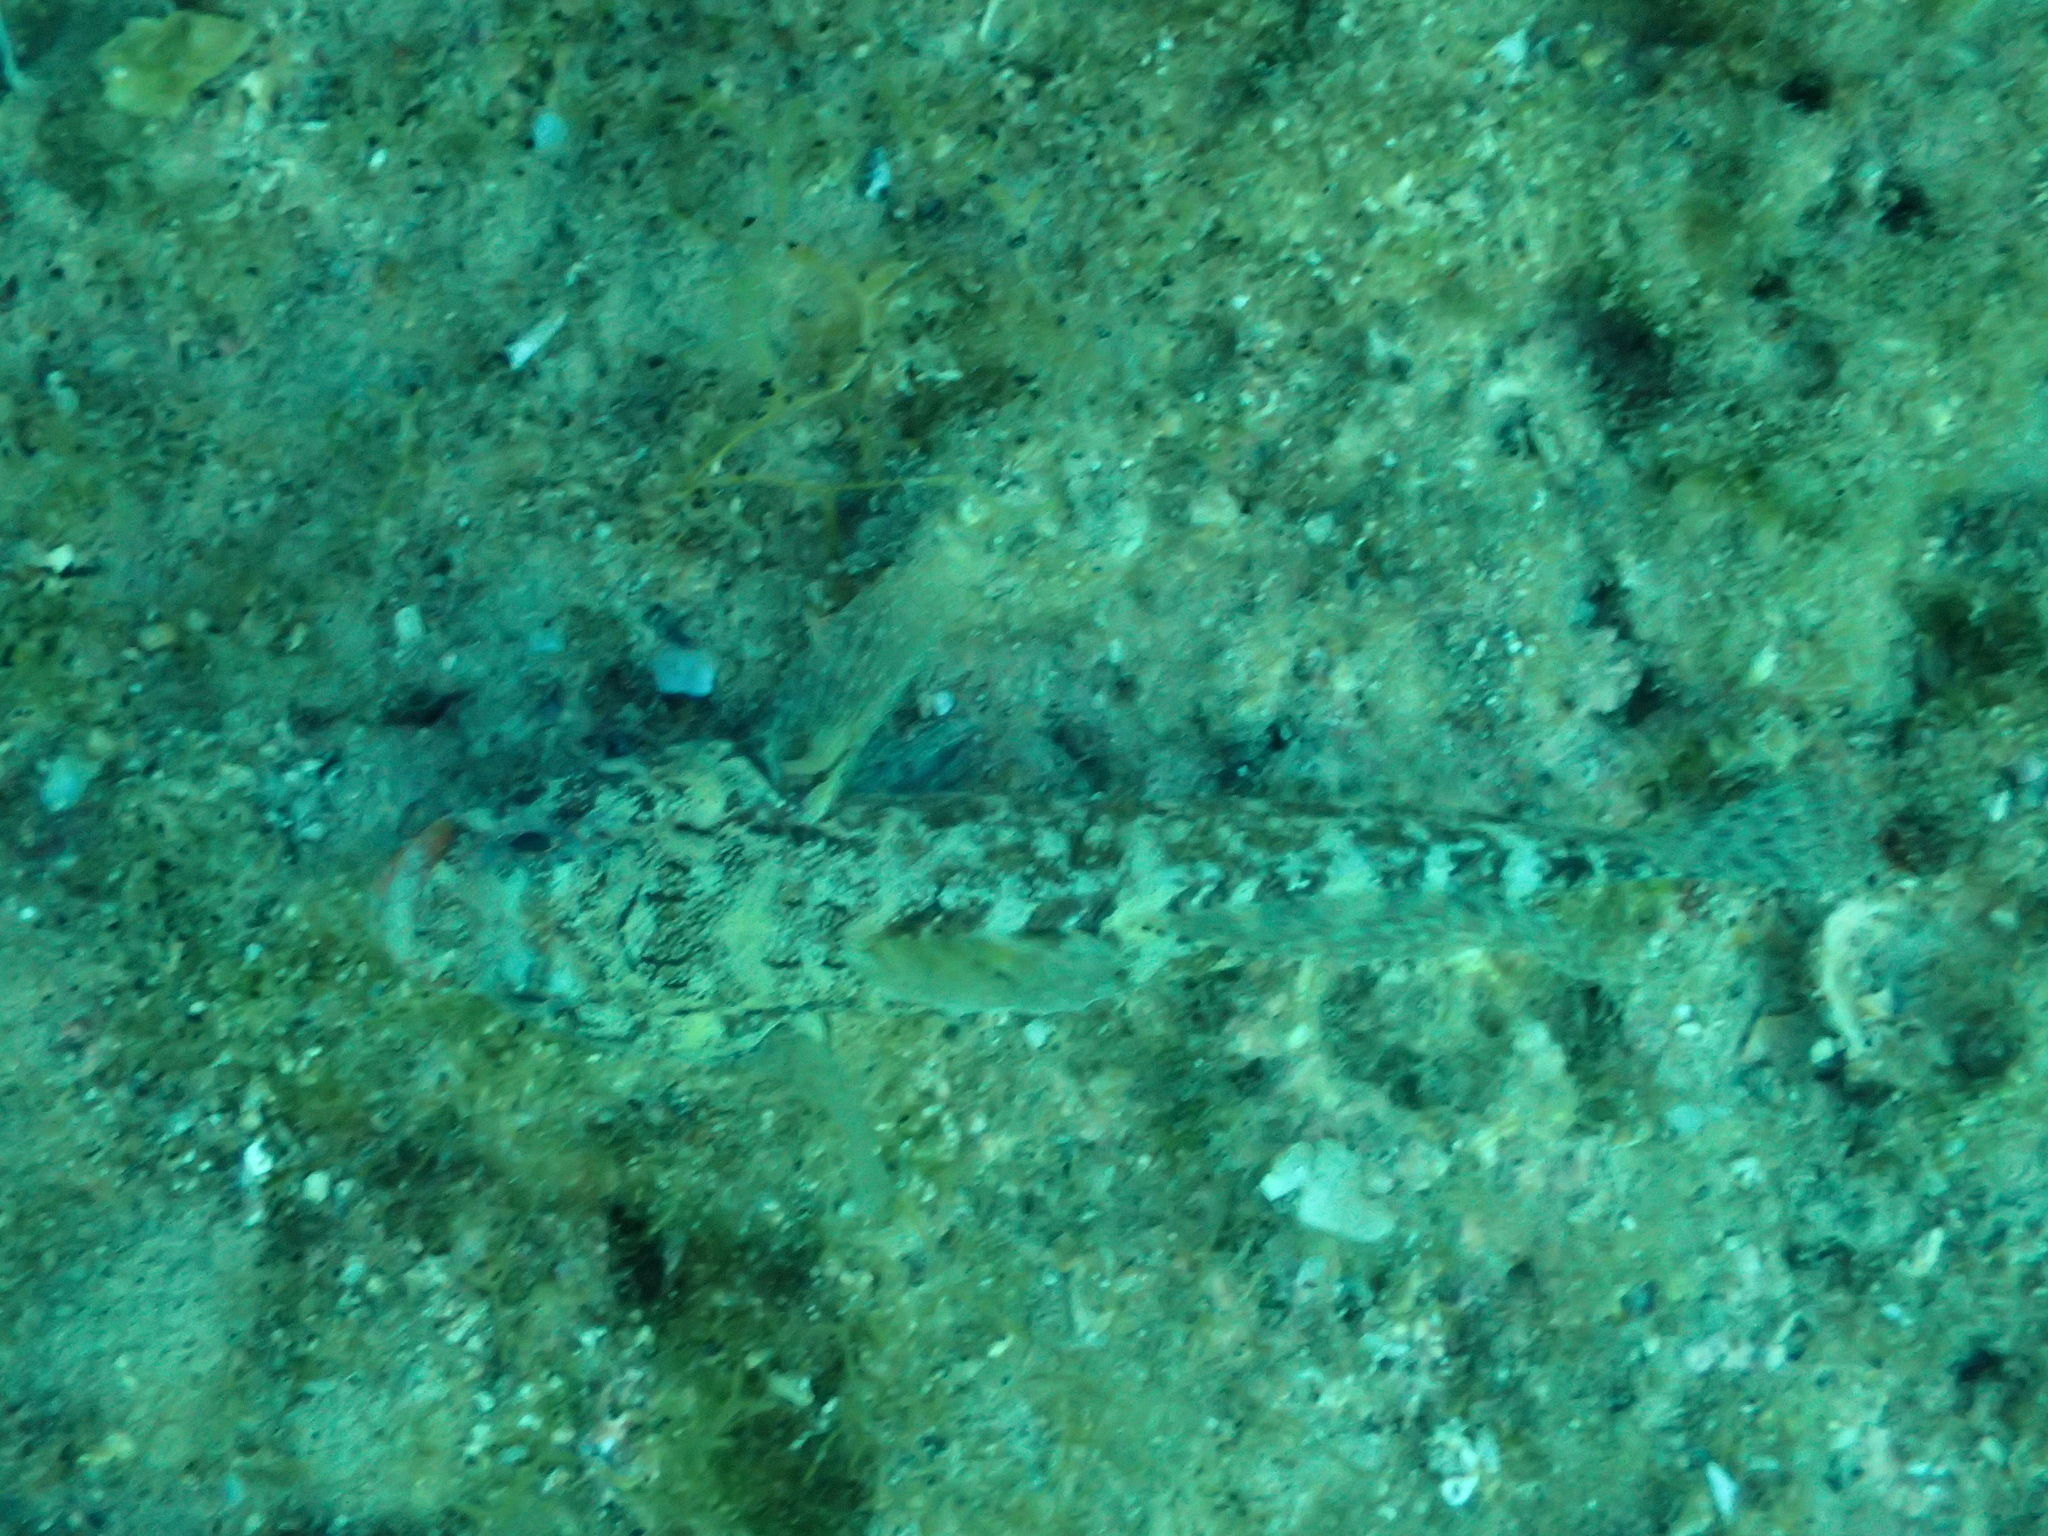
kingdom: Animalia
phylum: Chordata
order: Perciformes
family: Gobiidae
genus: Gobius
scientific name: Gobius cruentatus
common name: Red-mouthed goby
